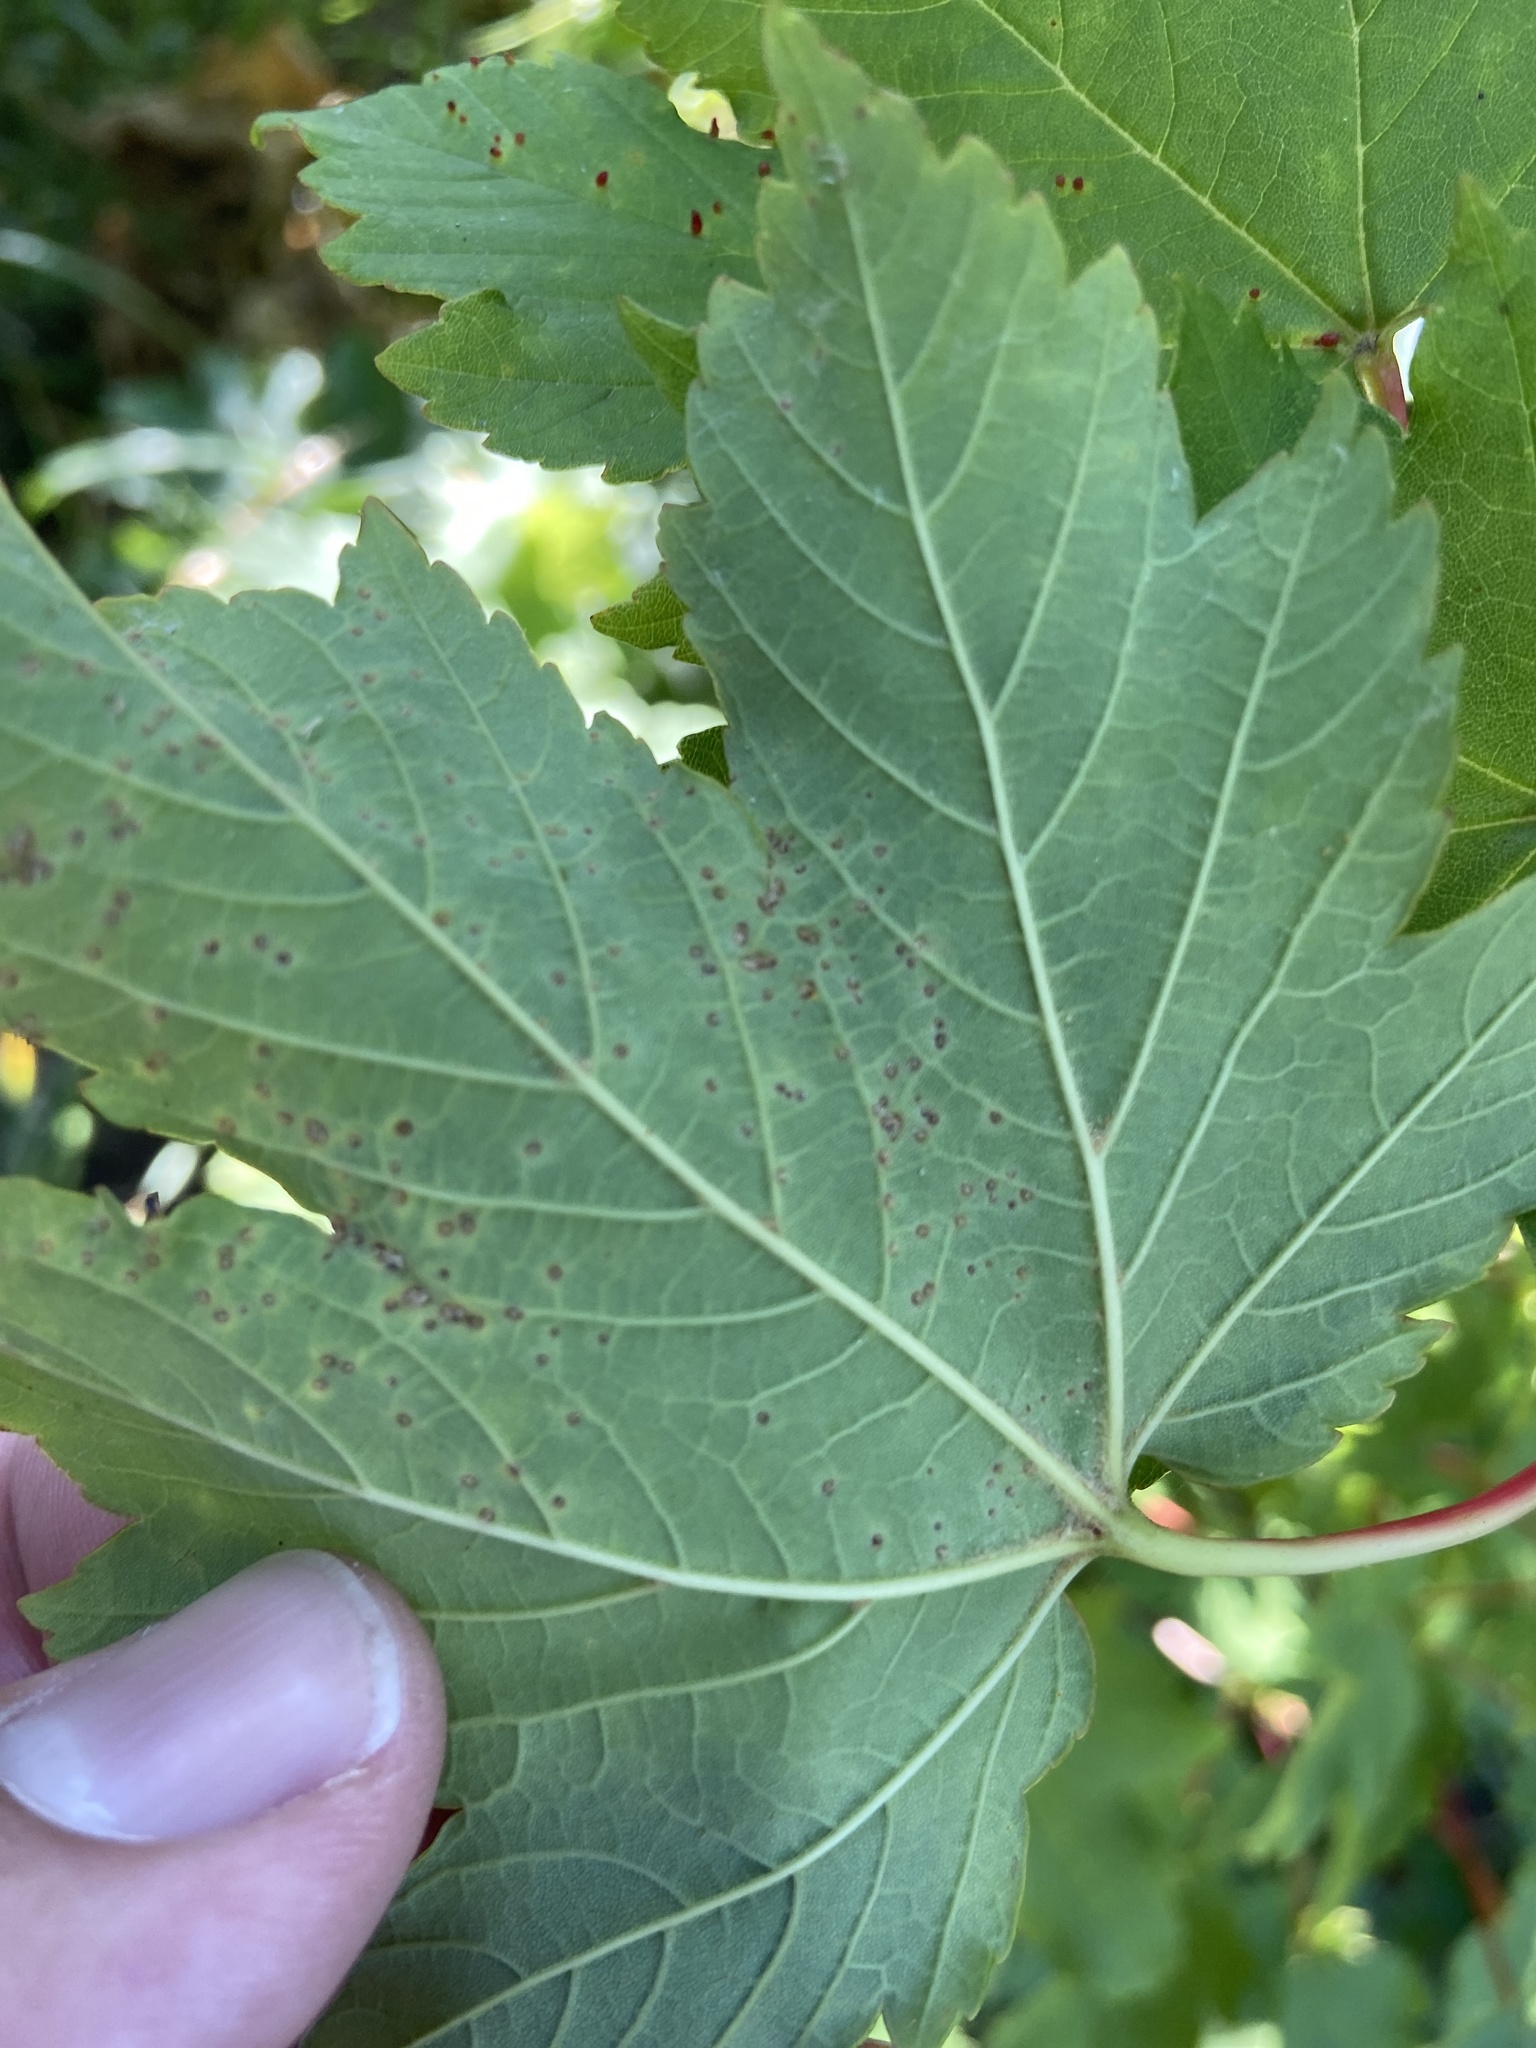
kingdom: Animalia
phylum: Arthropoda
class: Arachnida
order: Trombidiformes
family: Eriophyidae
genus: Aceria
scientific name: Aceria cephaloneus
